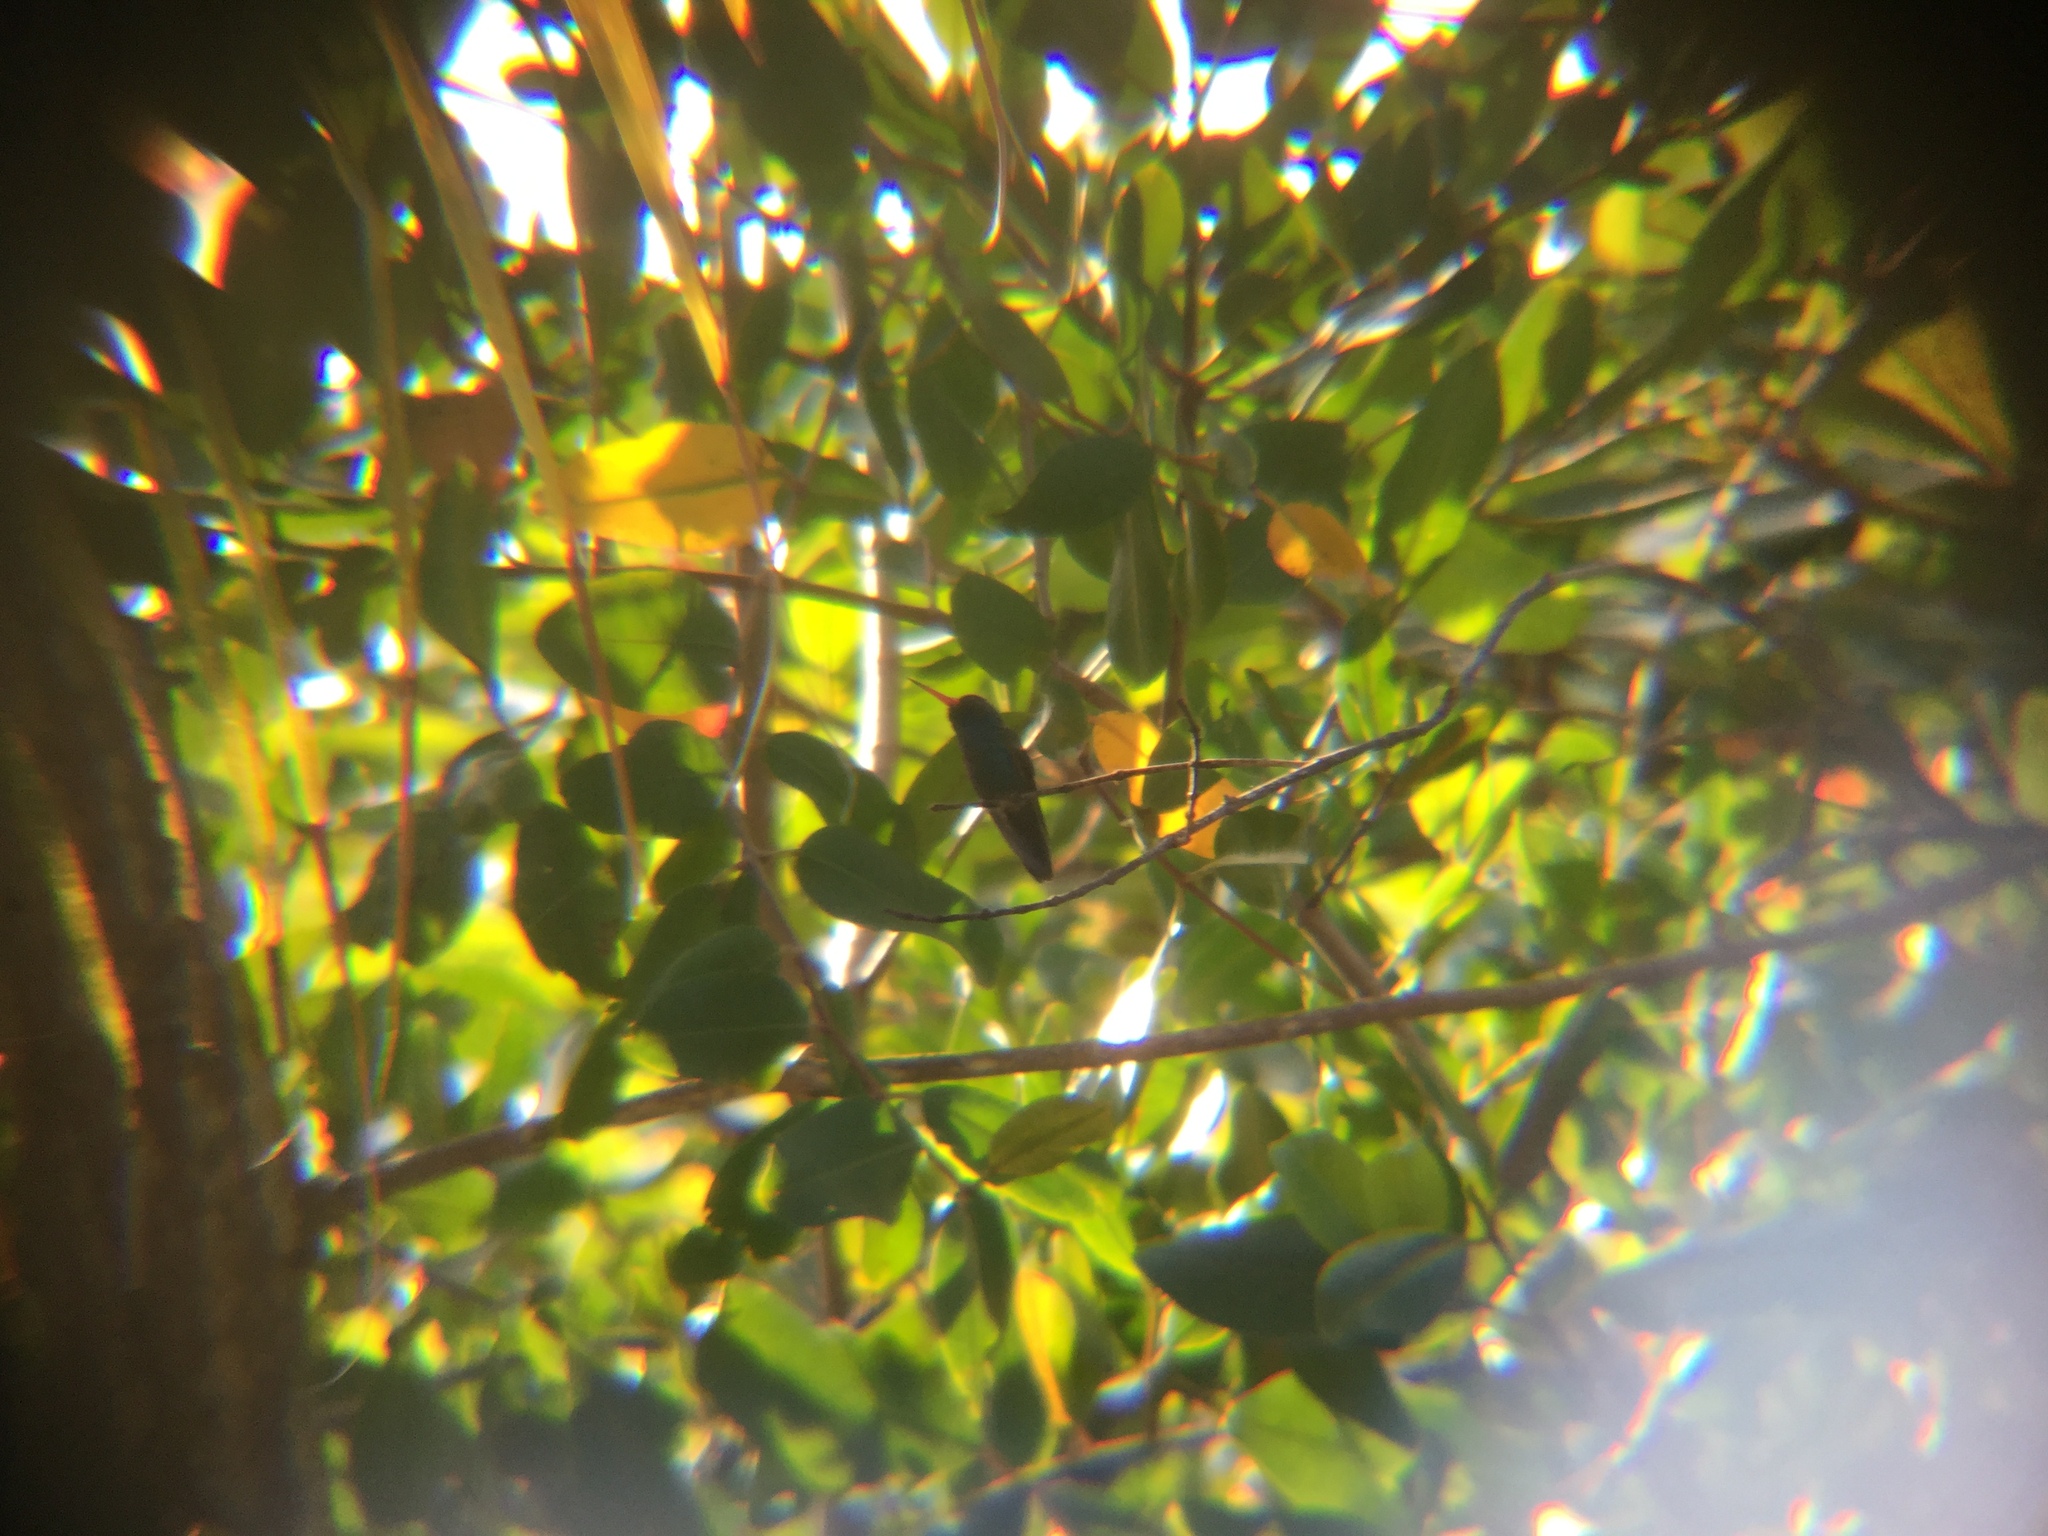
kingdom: Animalia
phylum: Chordata
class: Aves
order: Apodiformes
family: Trochilidae
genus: Cynanthus
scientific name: Cynanthus doubledayi
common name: Doubleday's hummingbird
